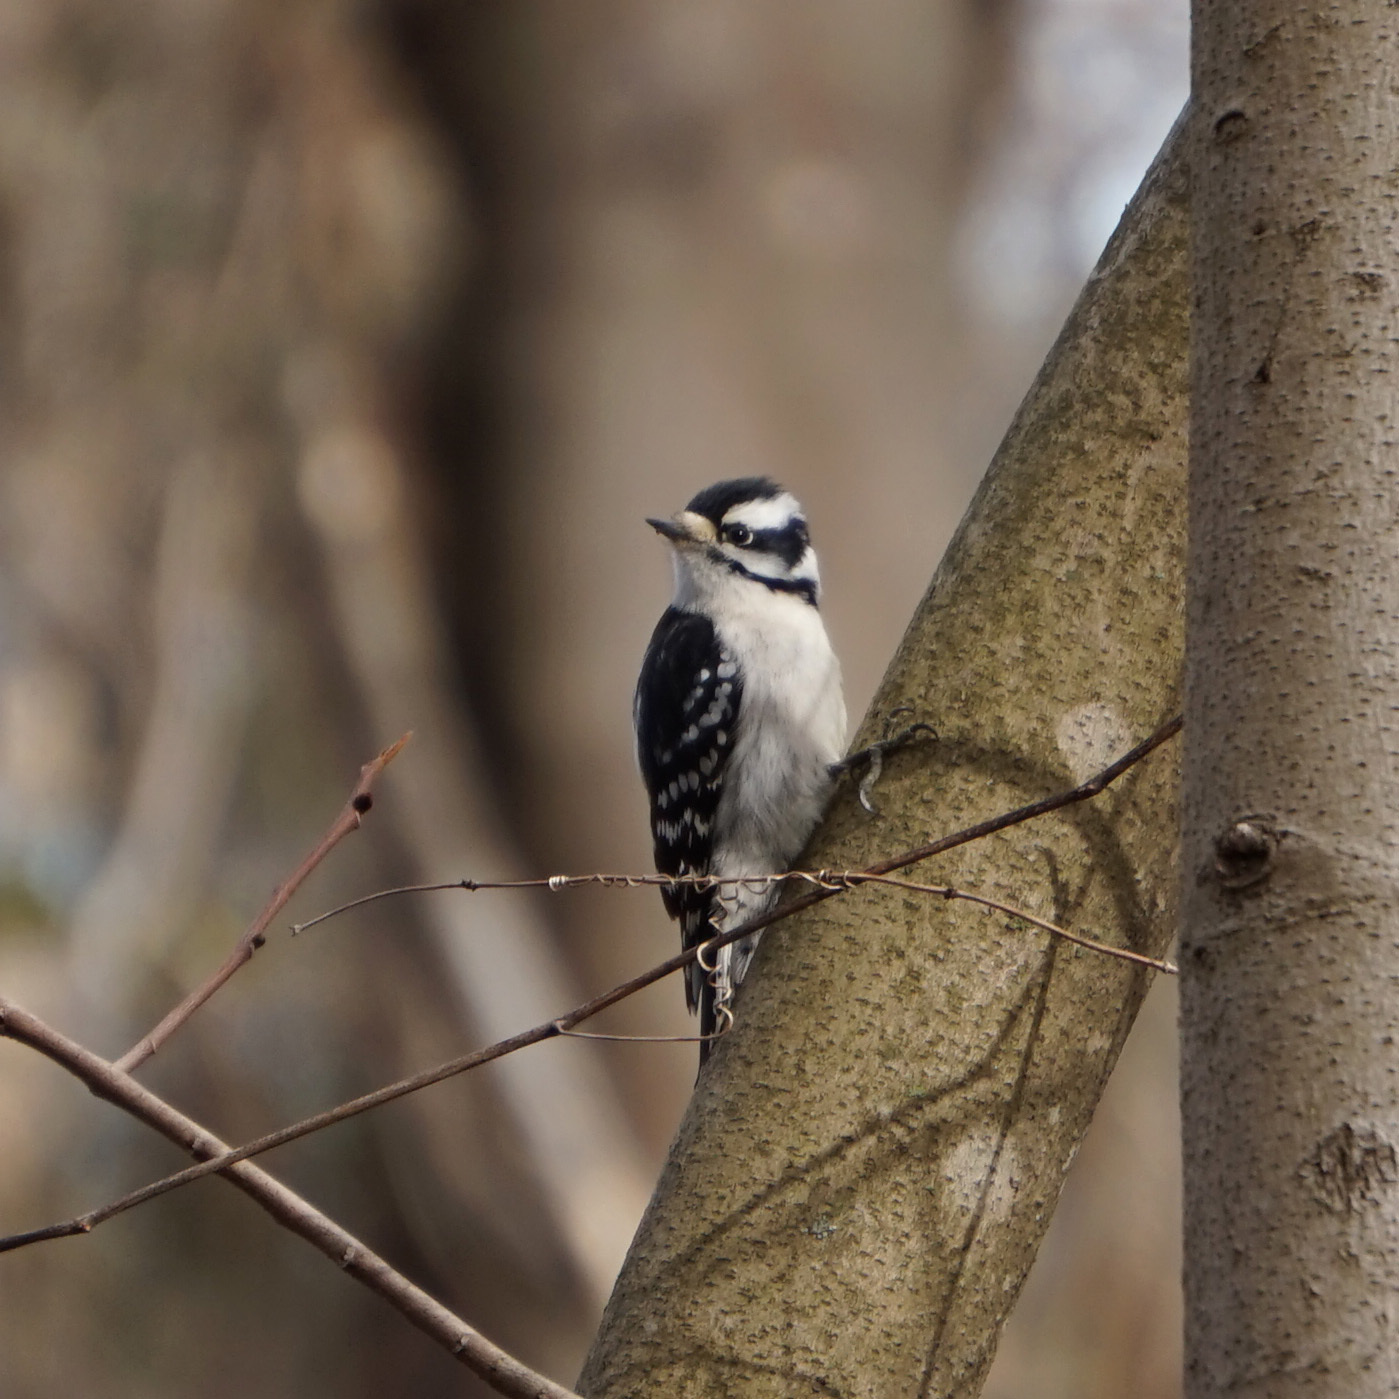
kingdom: Animalia
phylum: Chordata
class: Aves
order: Piciformes
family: Picidae
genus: Dryobates
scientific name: Dryobates pubescens
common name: Downy woodpecker
